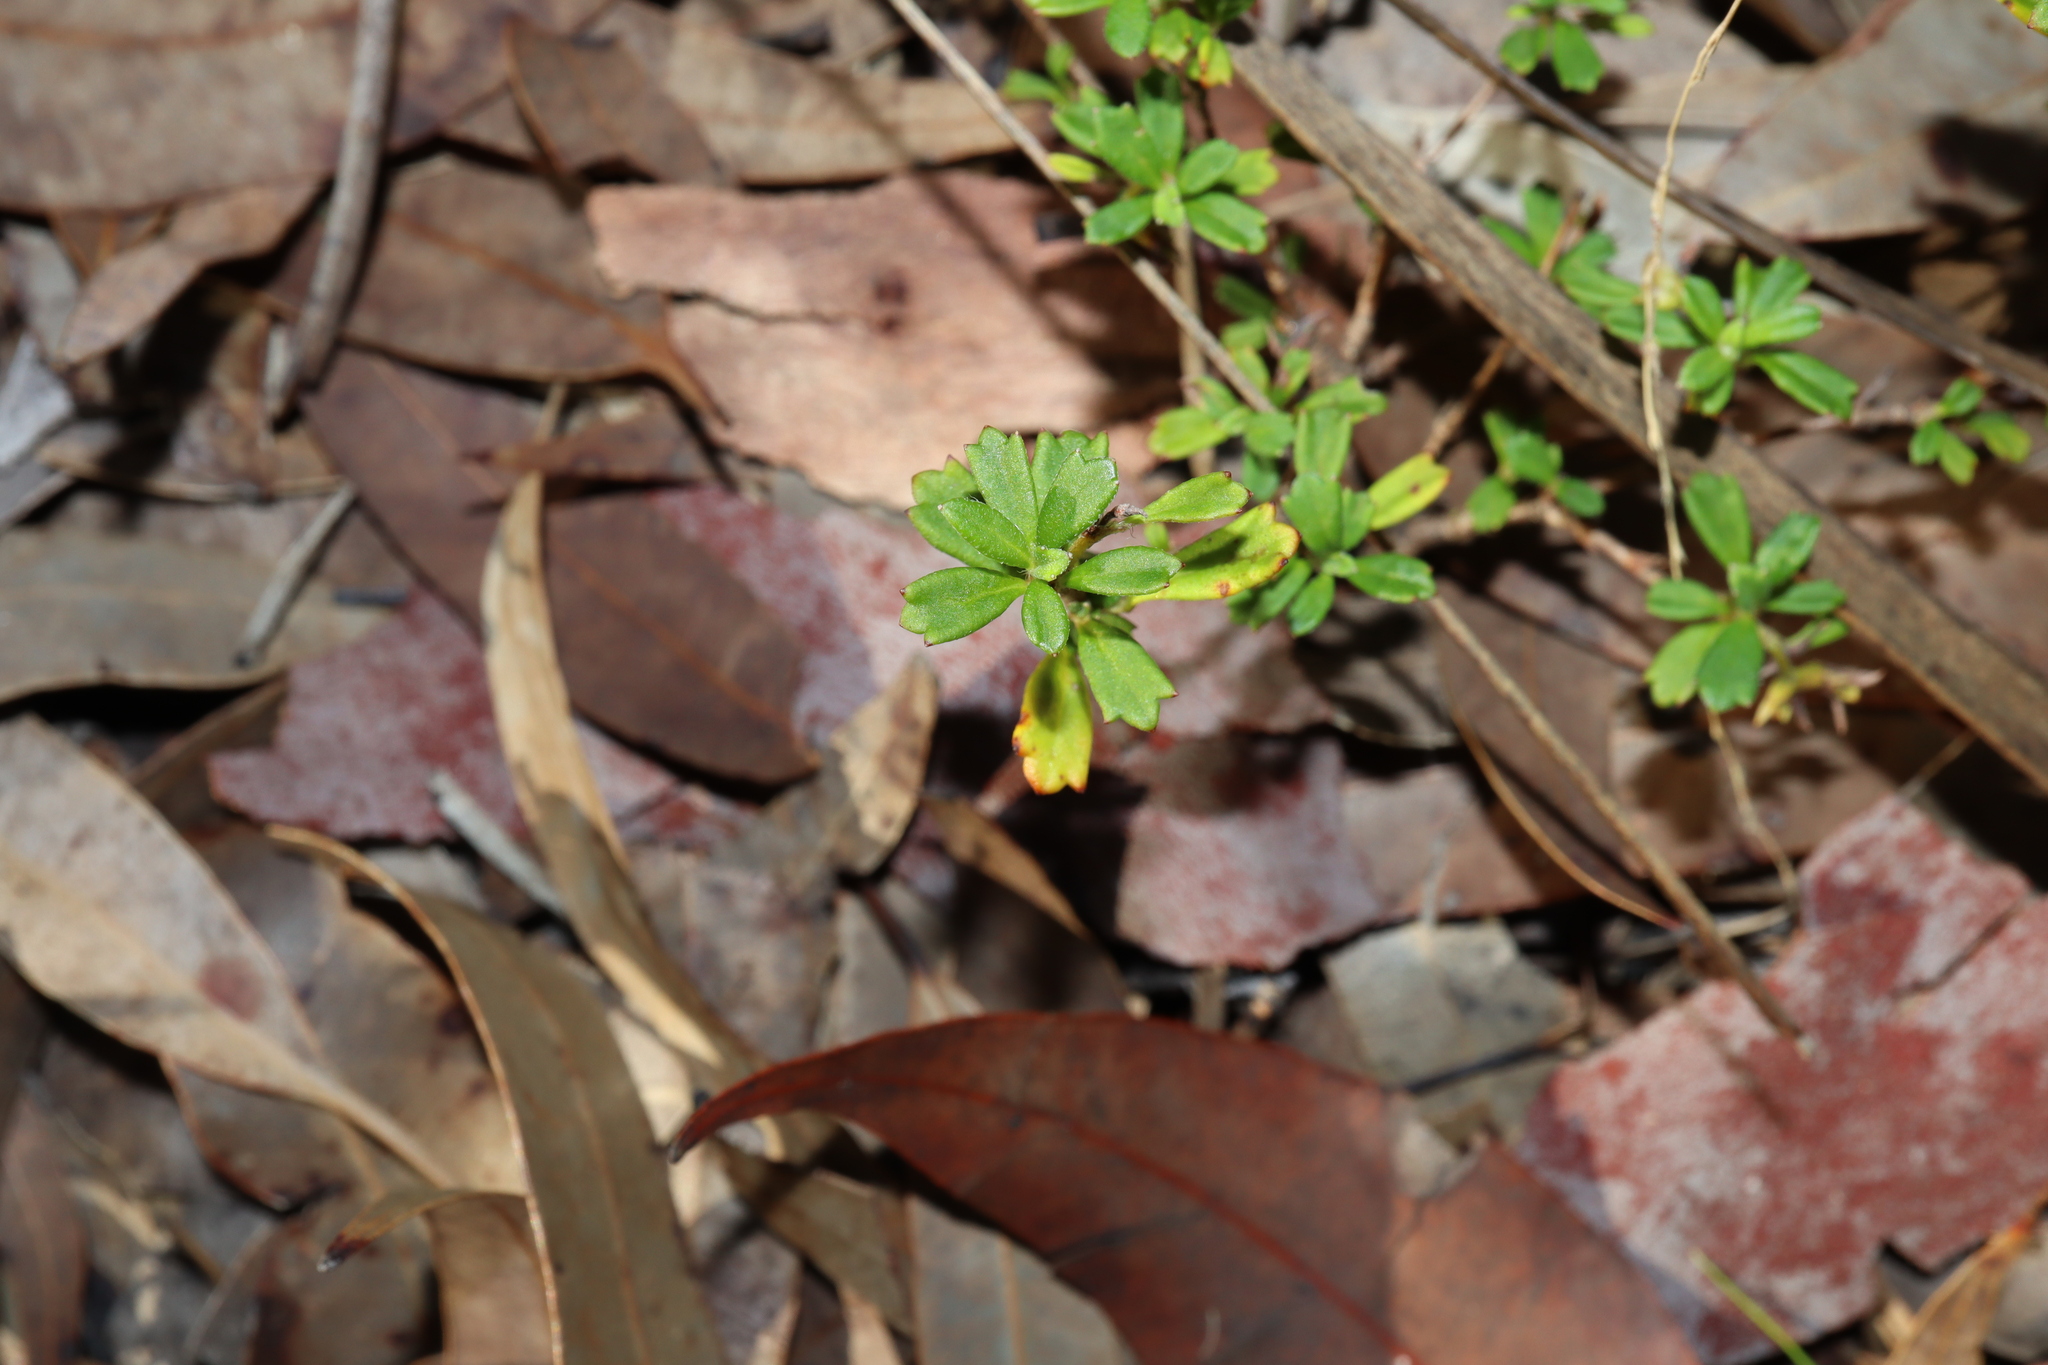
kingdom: Plantae
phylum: Tracheophyta
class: Magnoliopsida
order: Apiales
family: Apiaceae
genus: Xanthosia
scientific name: Xanthosia tridentata
